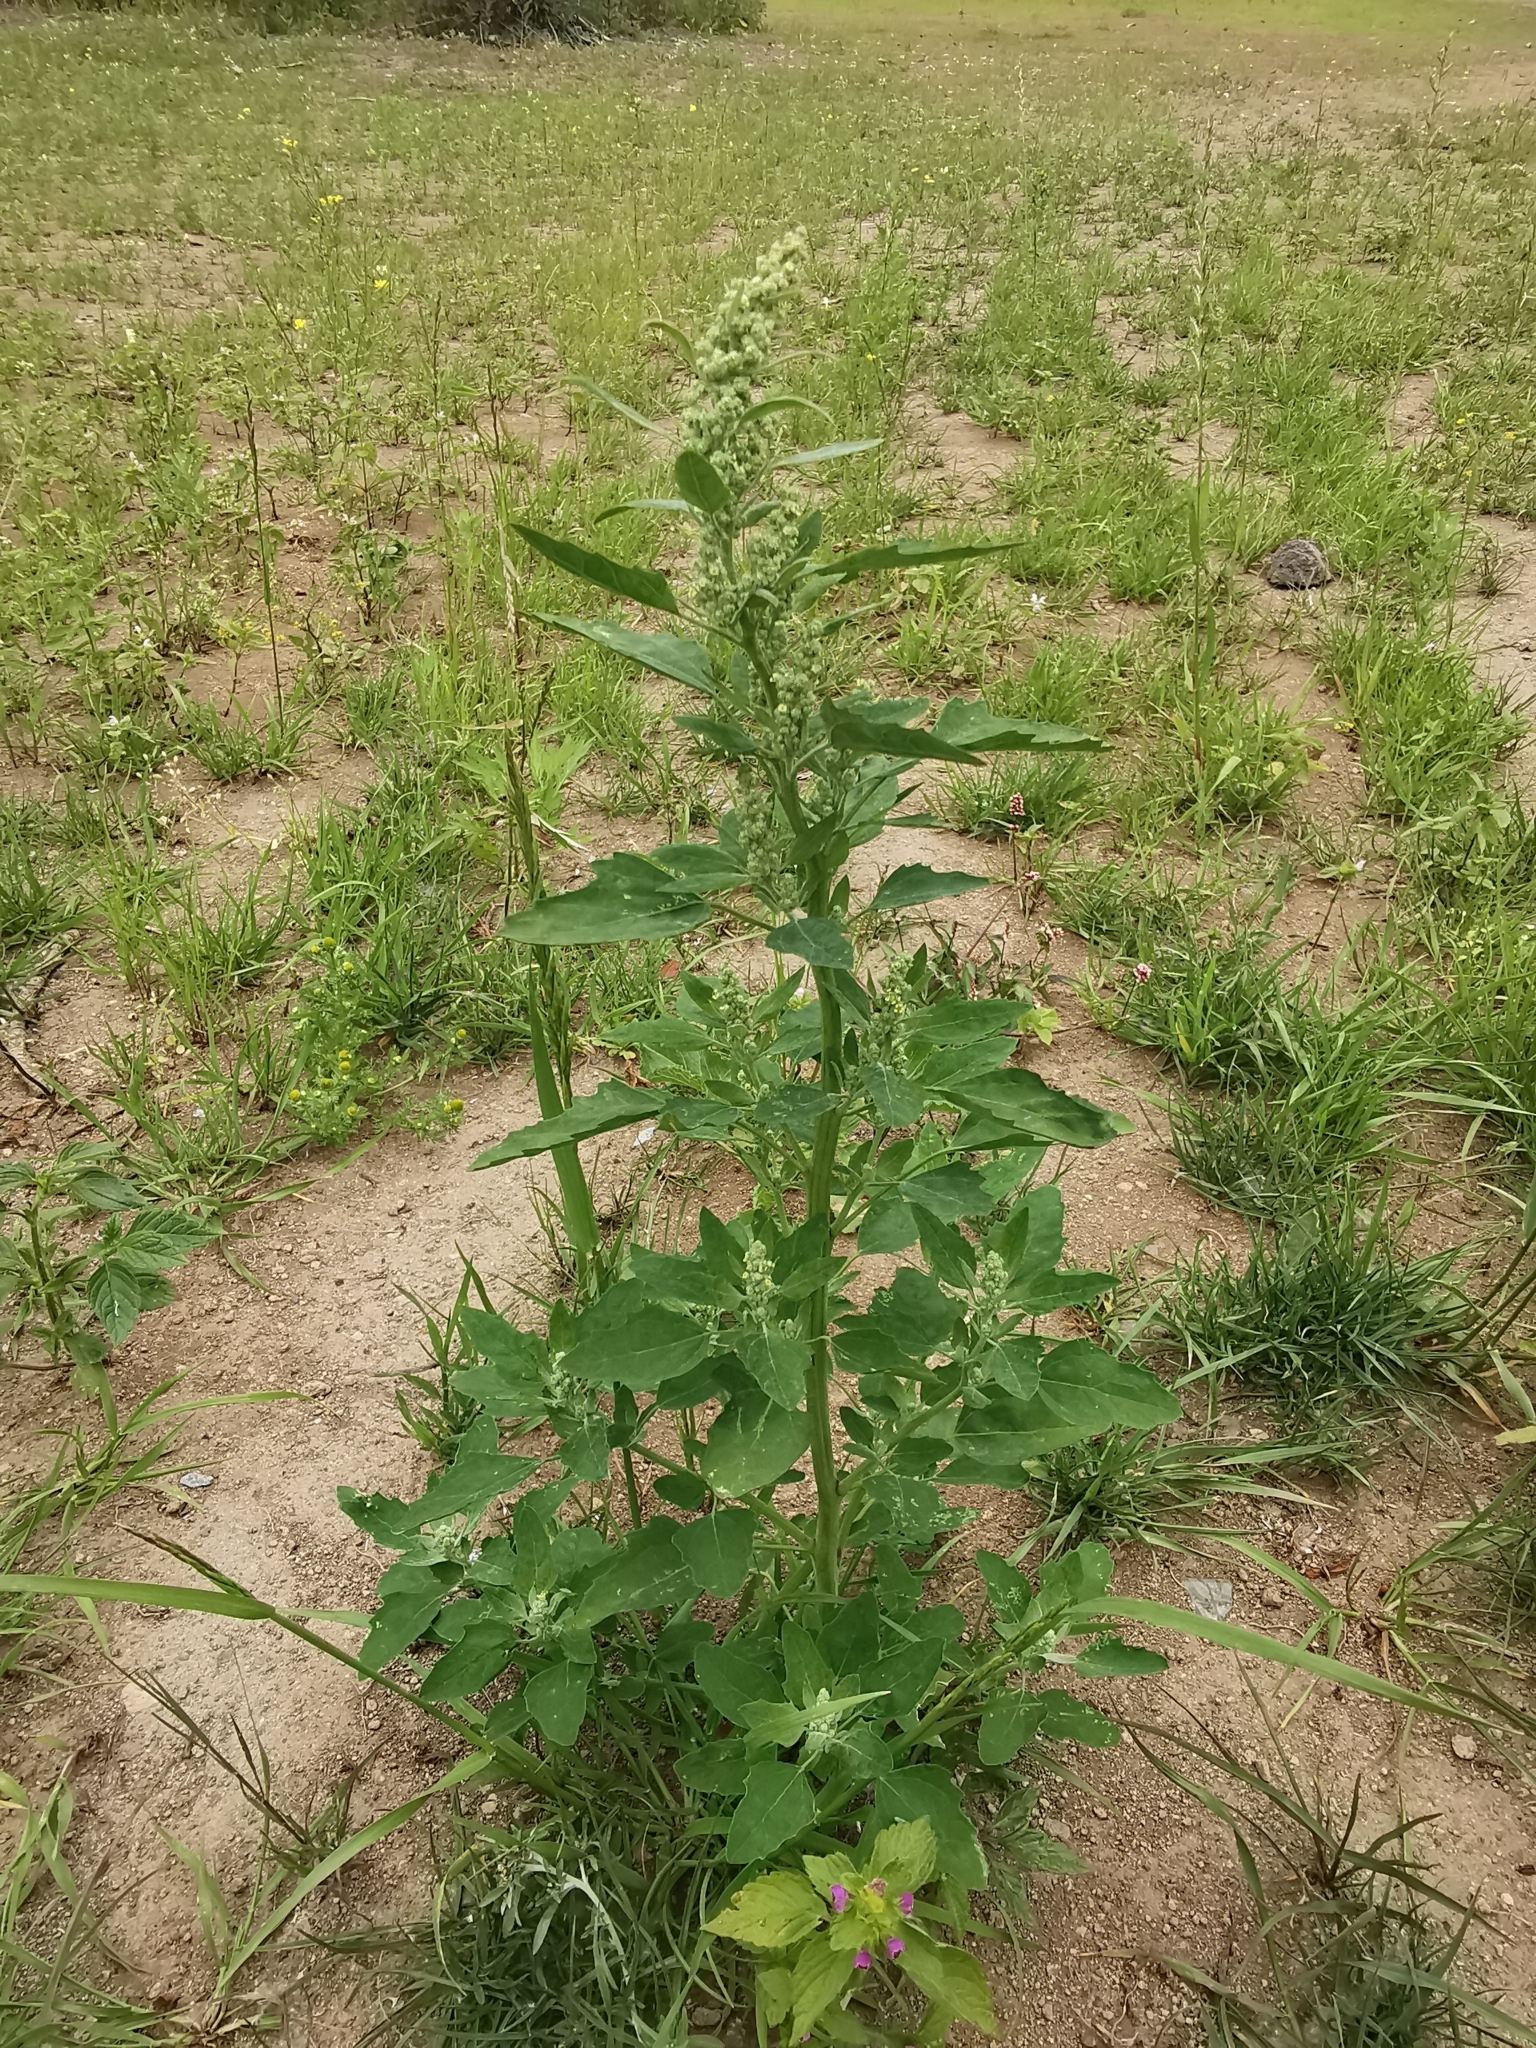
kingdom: Plantae
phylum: Tracheophyta
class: Magnoliopsida
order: Caryophyllales
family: Amaranthaceae
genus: Chenopodium
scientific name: Chenopodium album
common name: Fat-hen
